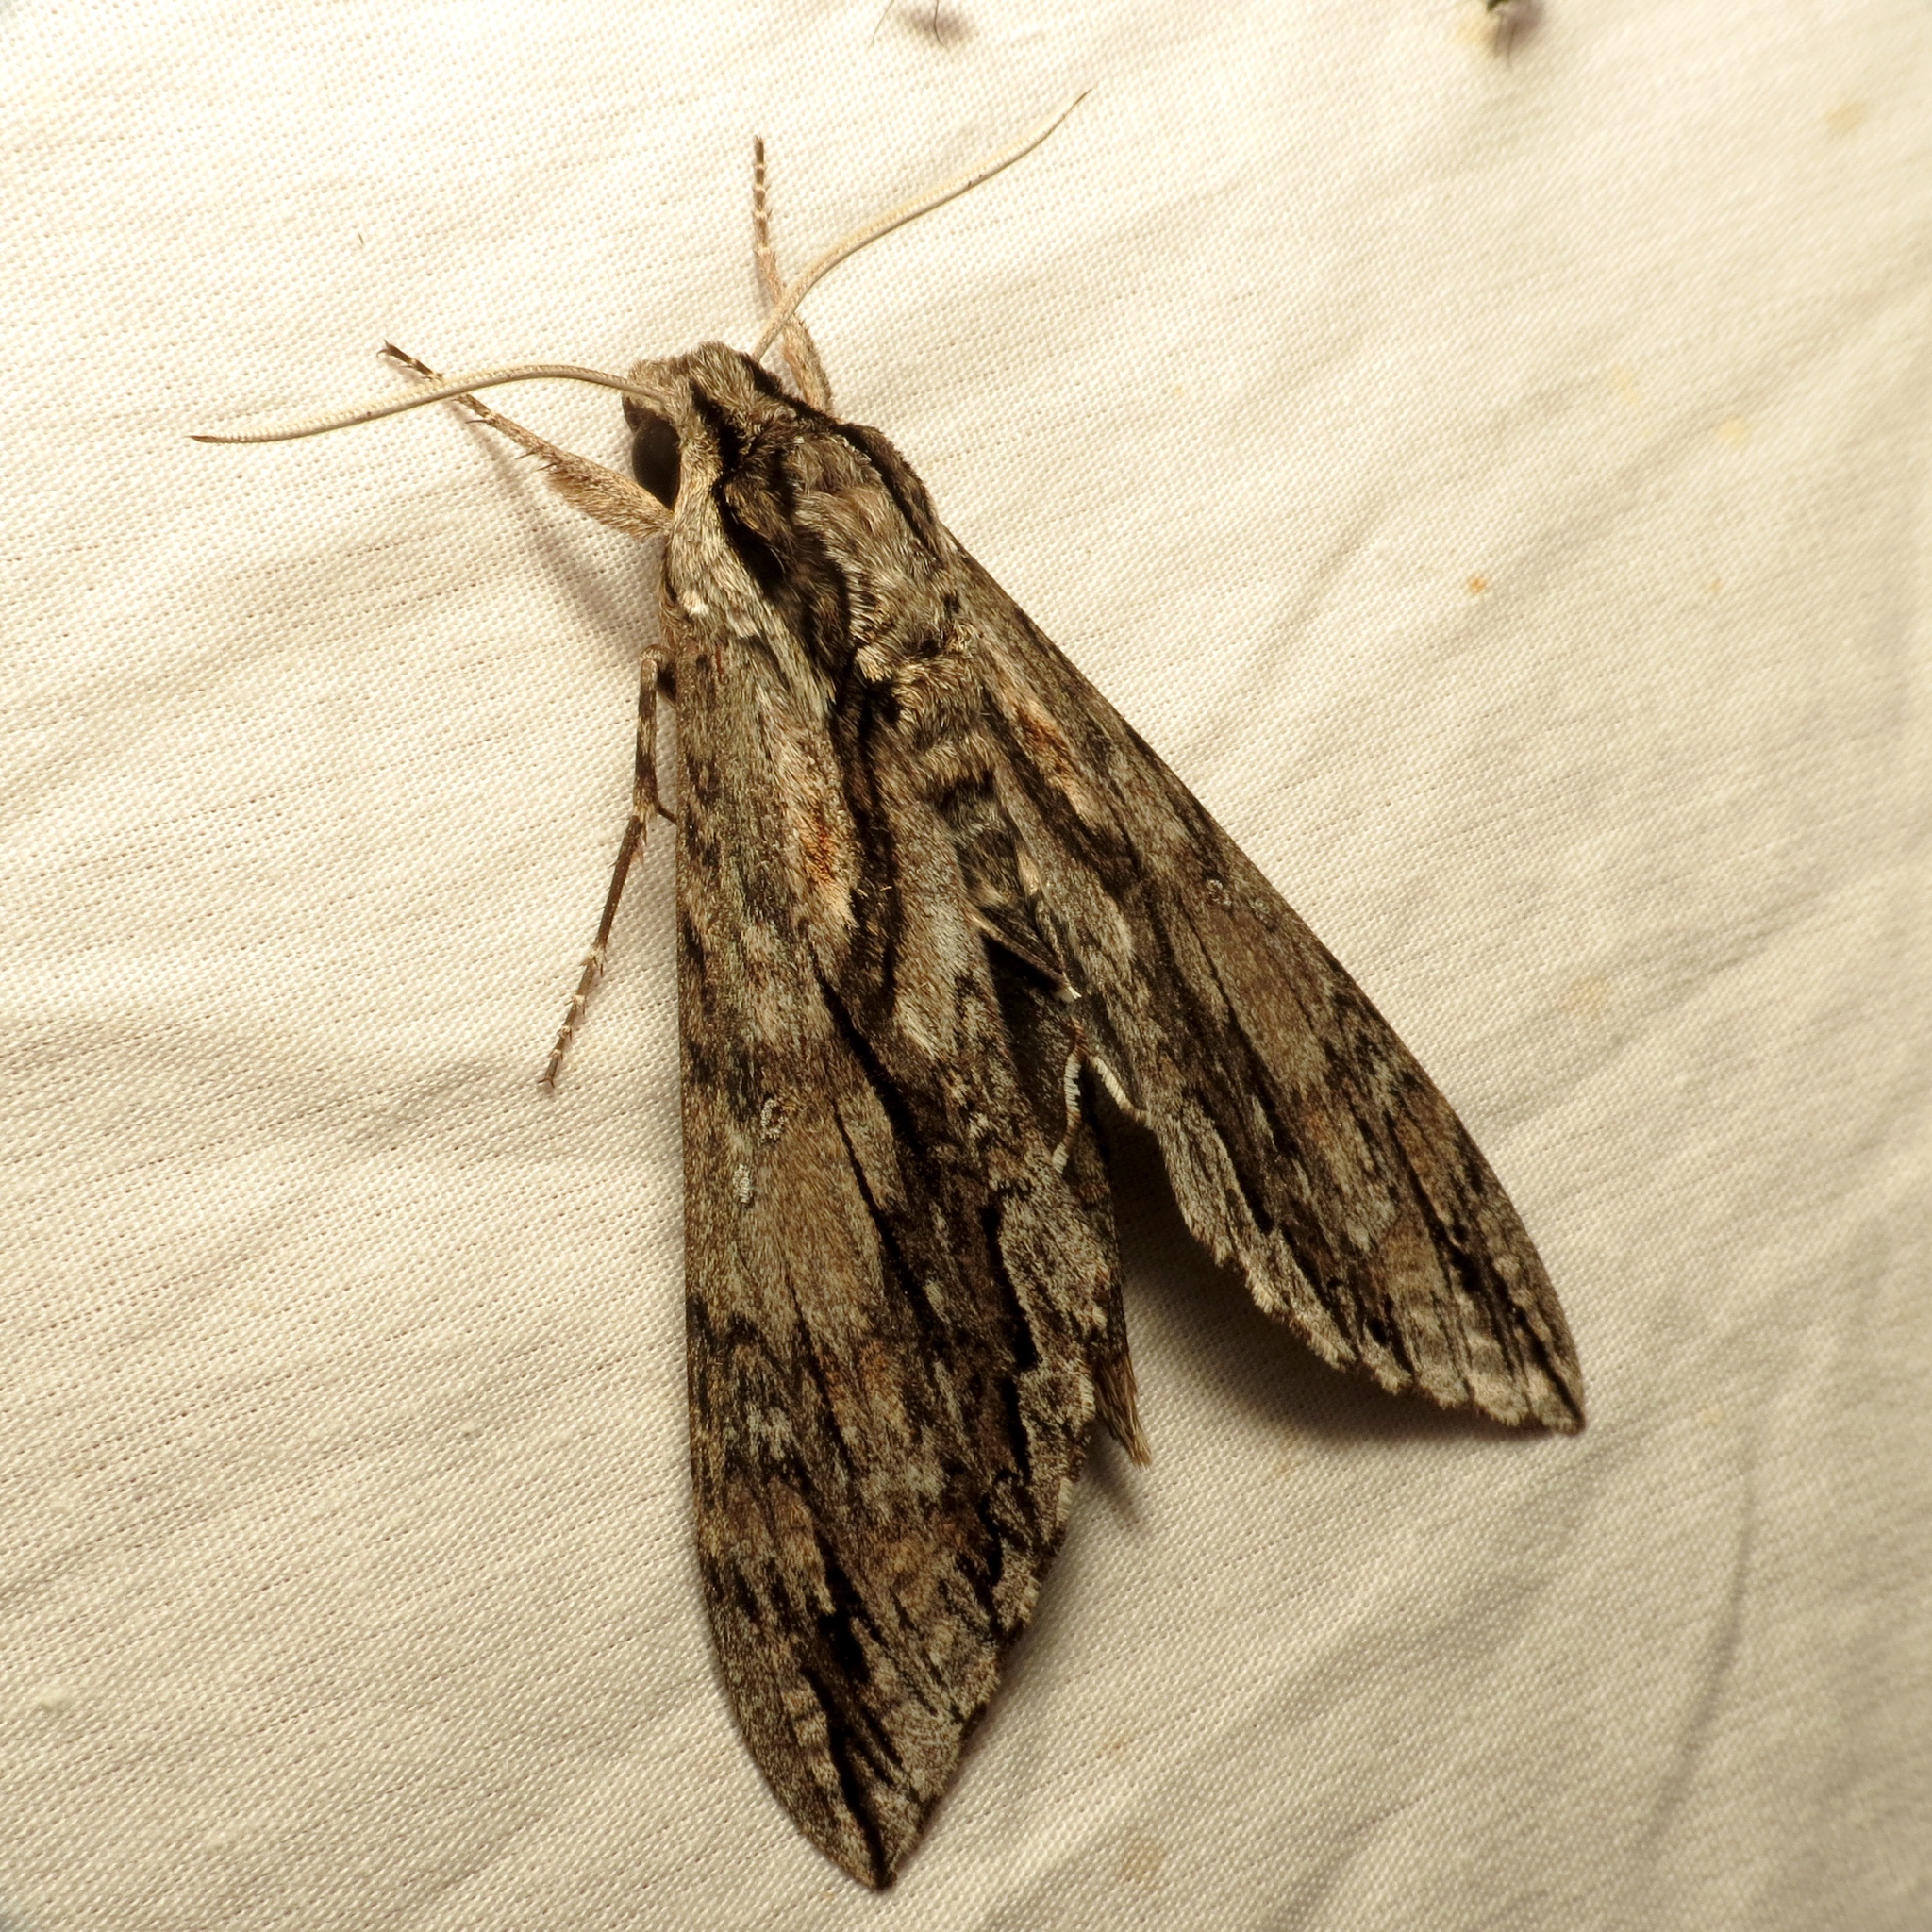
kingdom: Animalia
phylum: Arthropoda
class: Insecta
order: Lepidoptera
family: Sphingidae
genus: Lintneria
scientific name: Lintneria istar
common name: Istar sphinx
